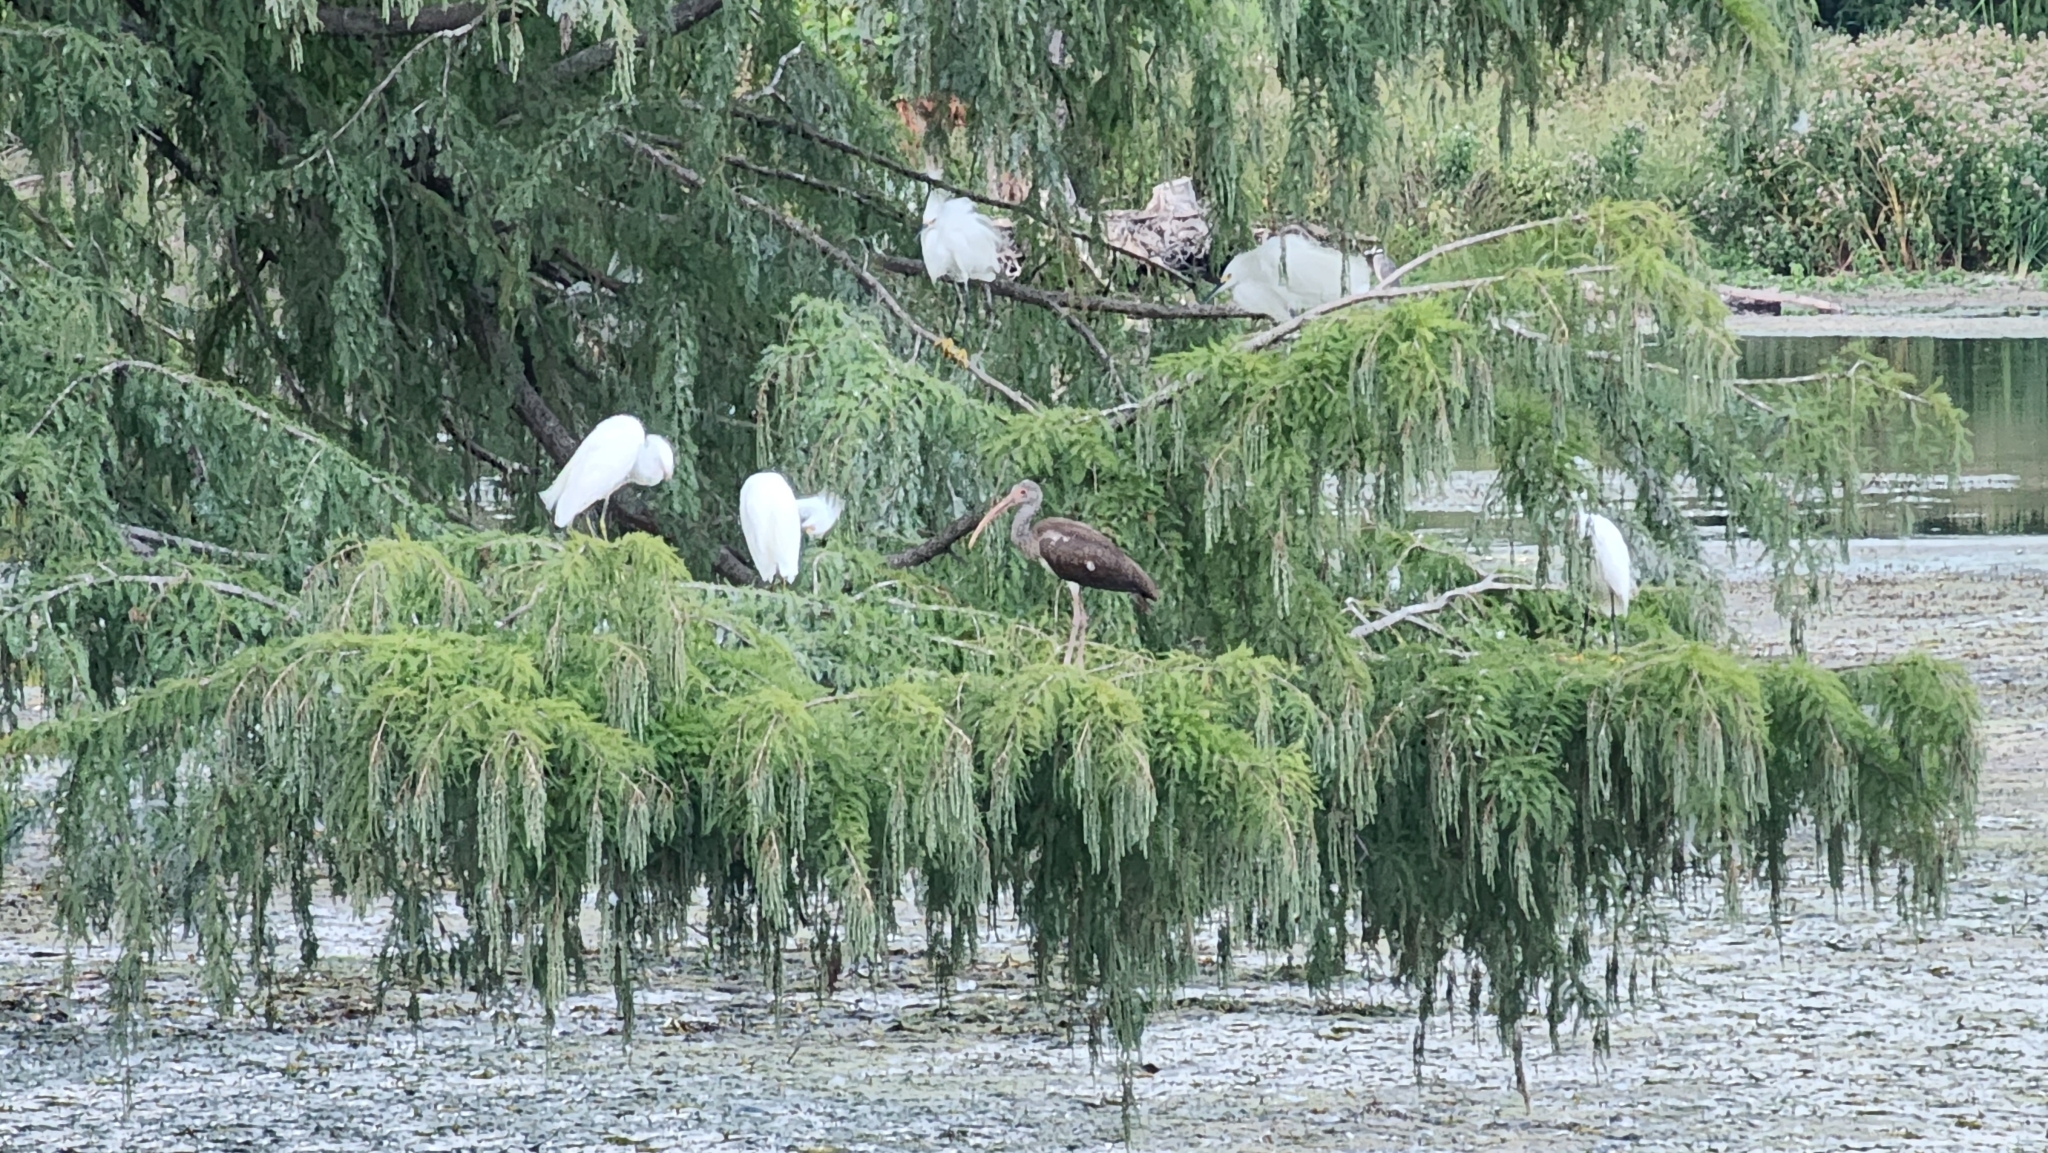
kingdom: Animalia
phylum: Chordata
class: Aves
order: Pelecaniformes
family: Threskiornithidae
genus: Eudocimus
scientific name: Eudocimus albus
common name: White ibis
